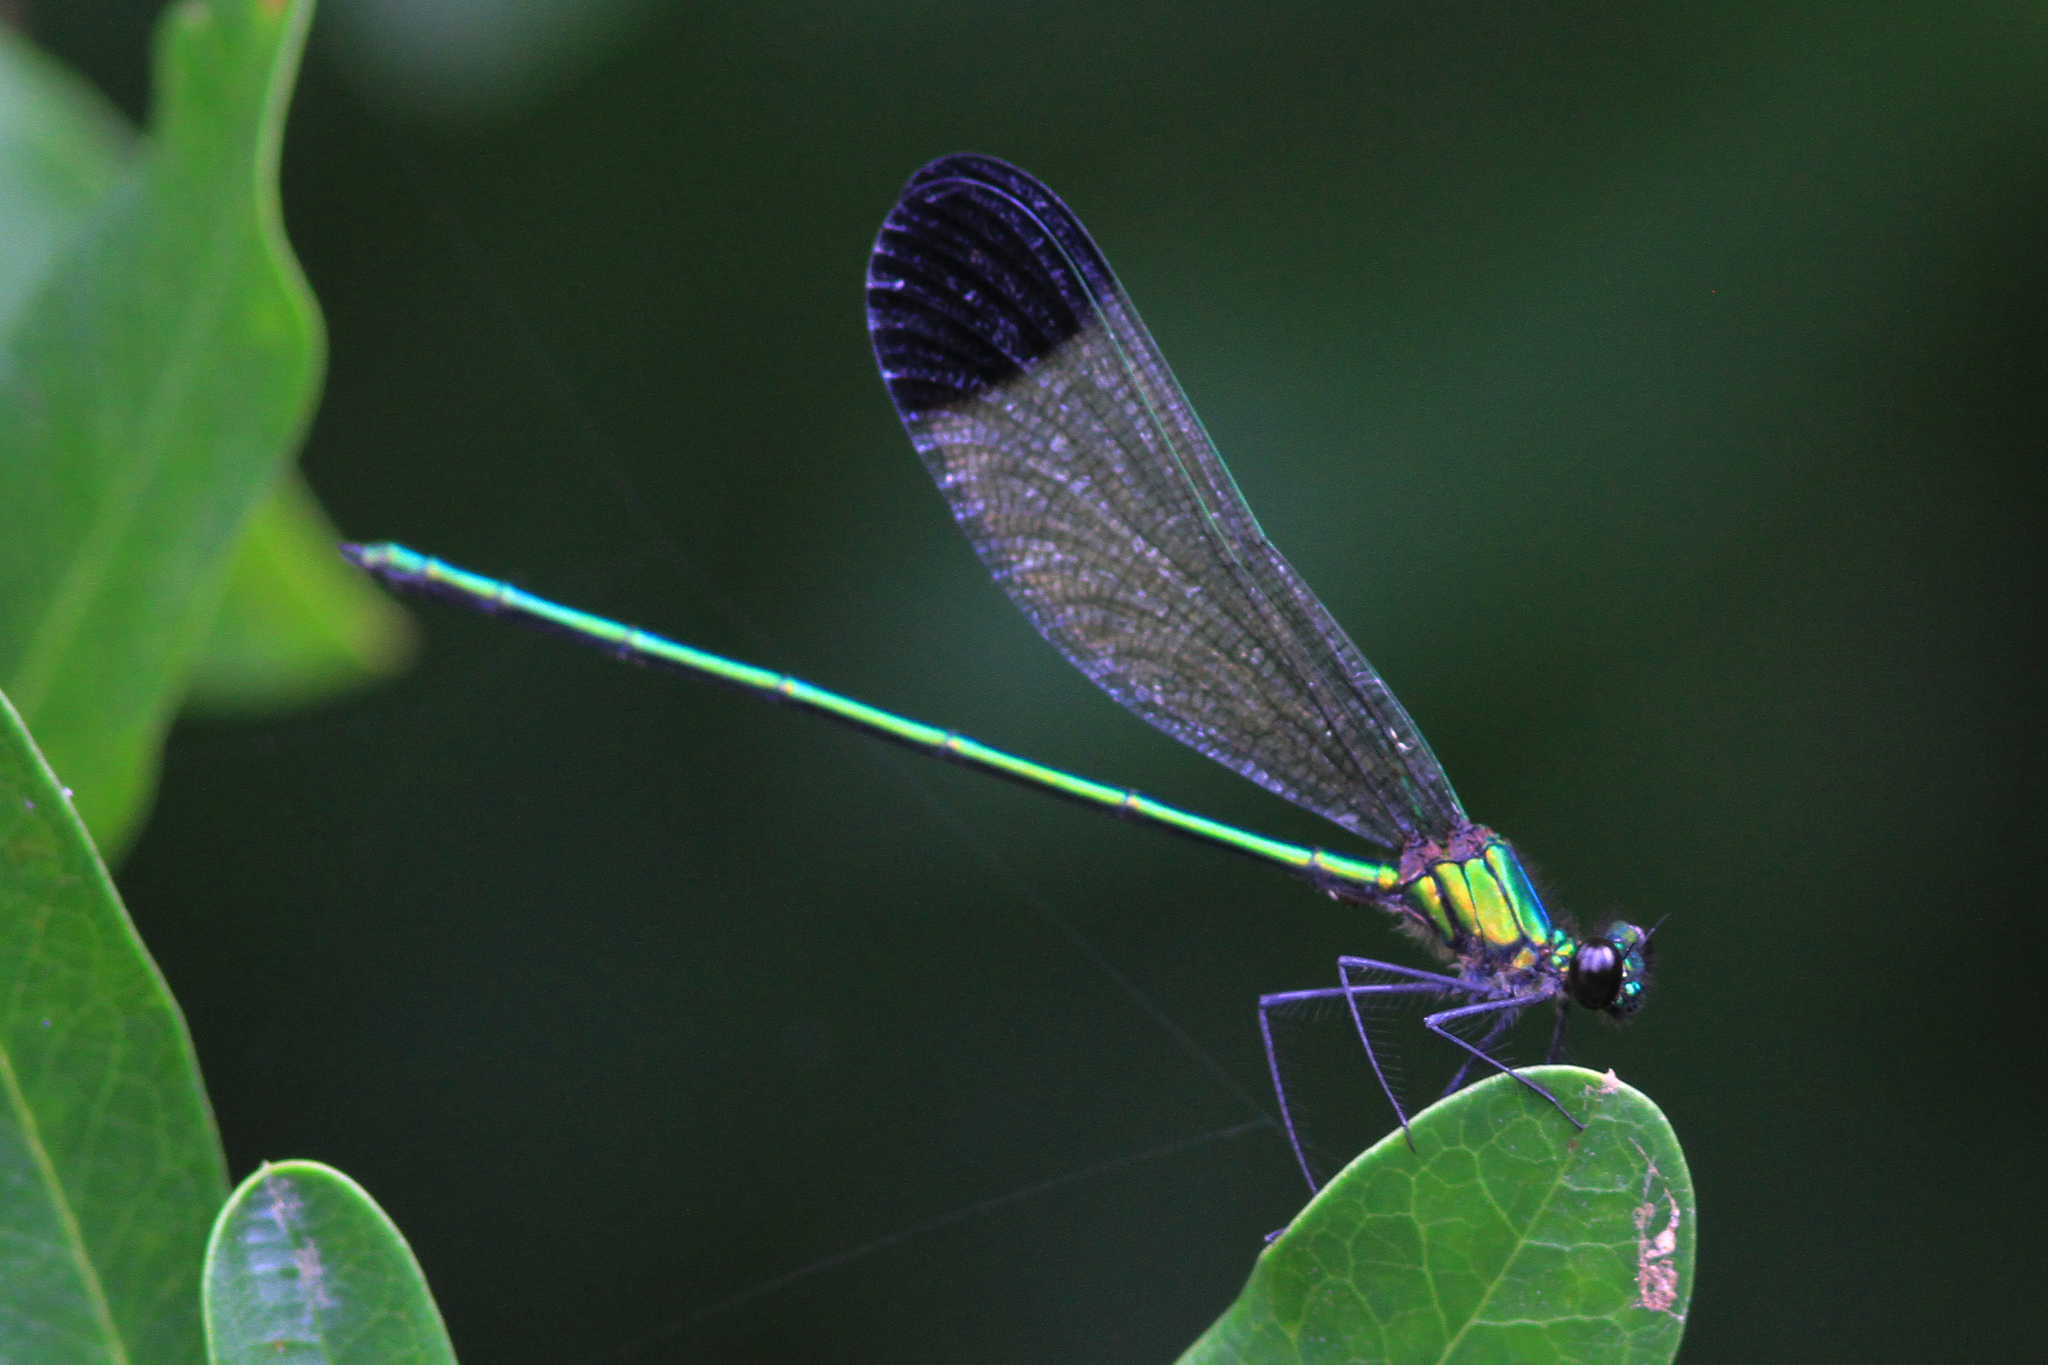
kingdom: Animalia
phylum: Arthropoda
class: Insecta
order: Odonata
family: Calopterygidae
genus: Calopteryx
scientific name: Calopteryx dimidiata
